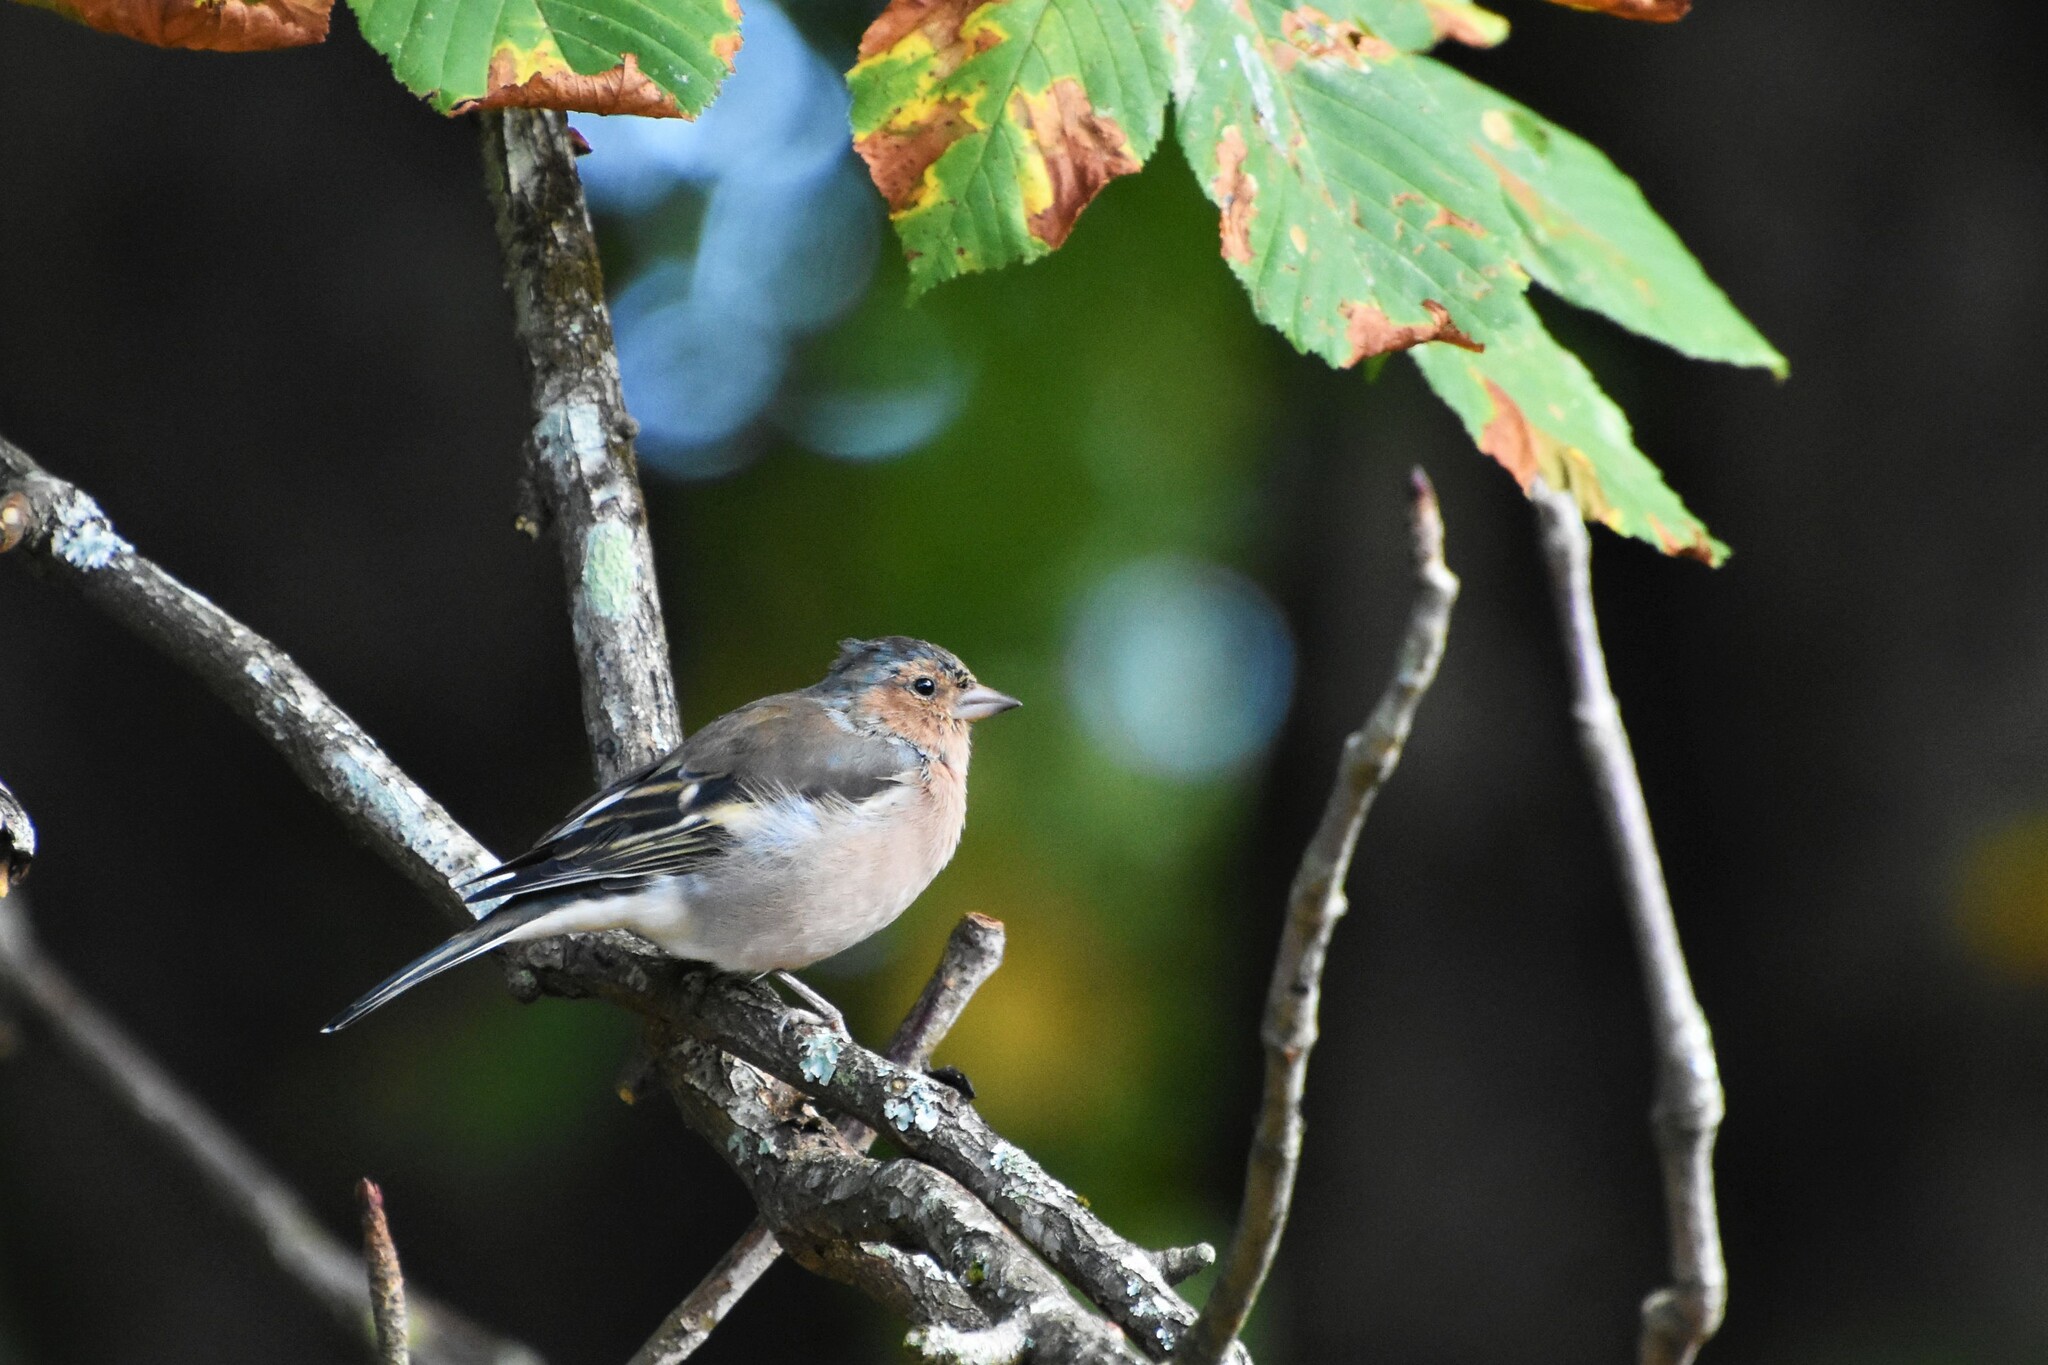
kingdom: Animalia
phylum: Chordata
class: Aves
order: Passeriformes
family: Fringillidae
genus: Fringilla
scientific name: Fringilla coelebs
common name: Common chaffinch
